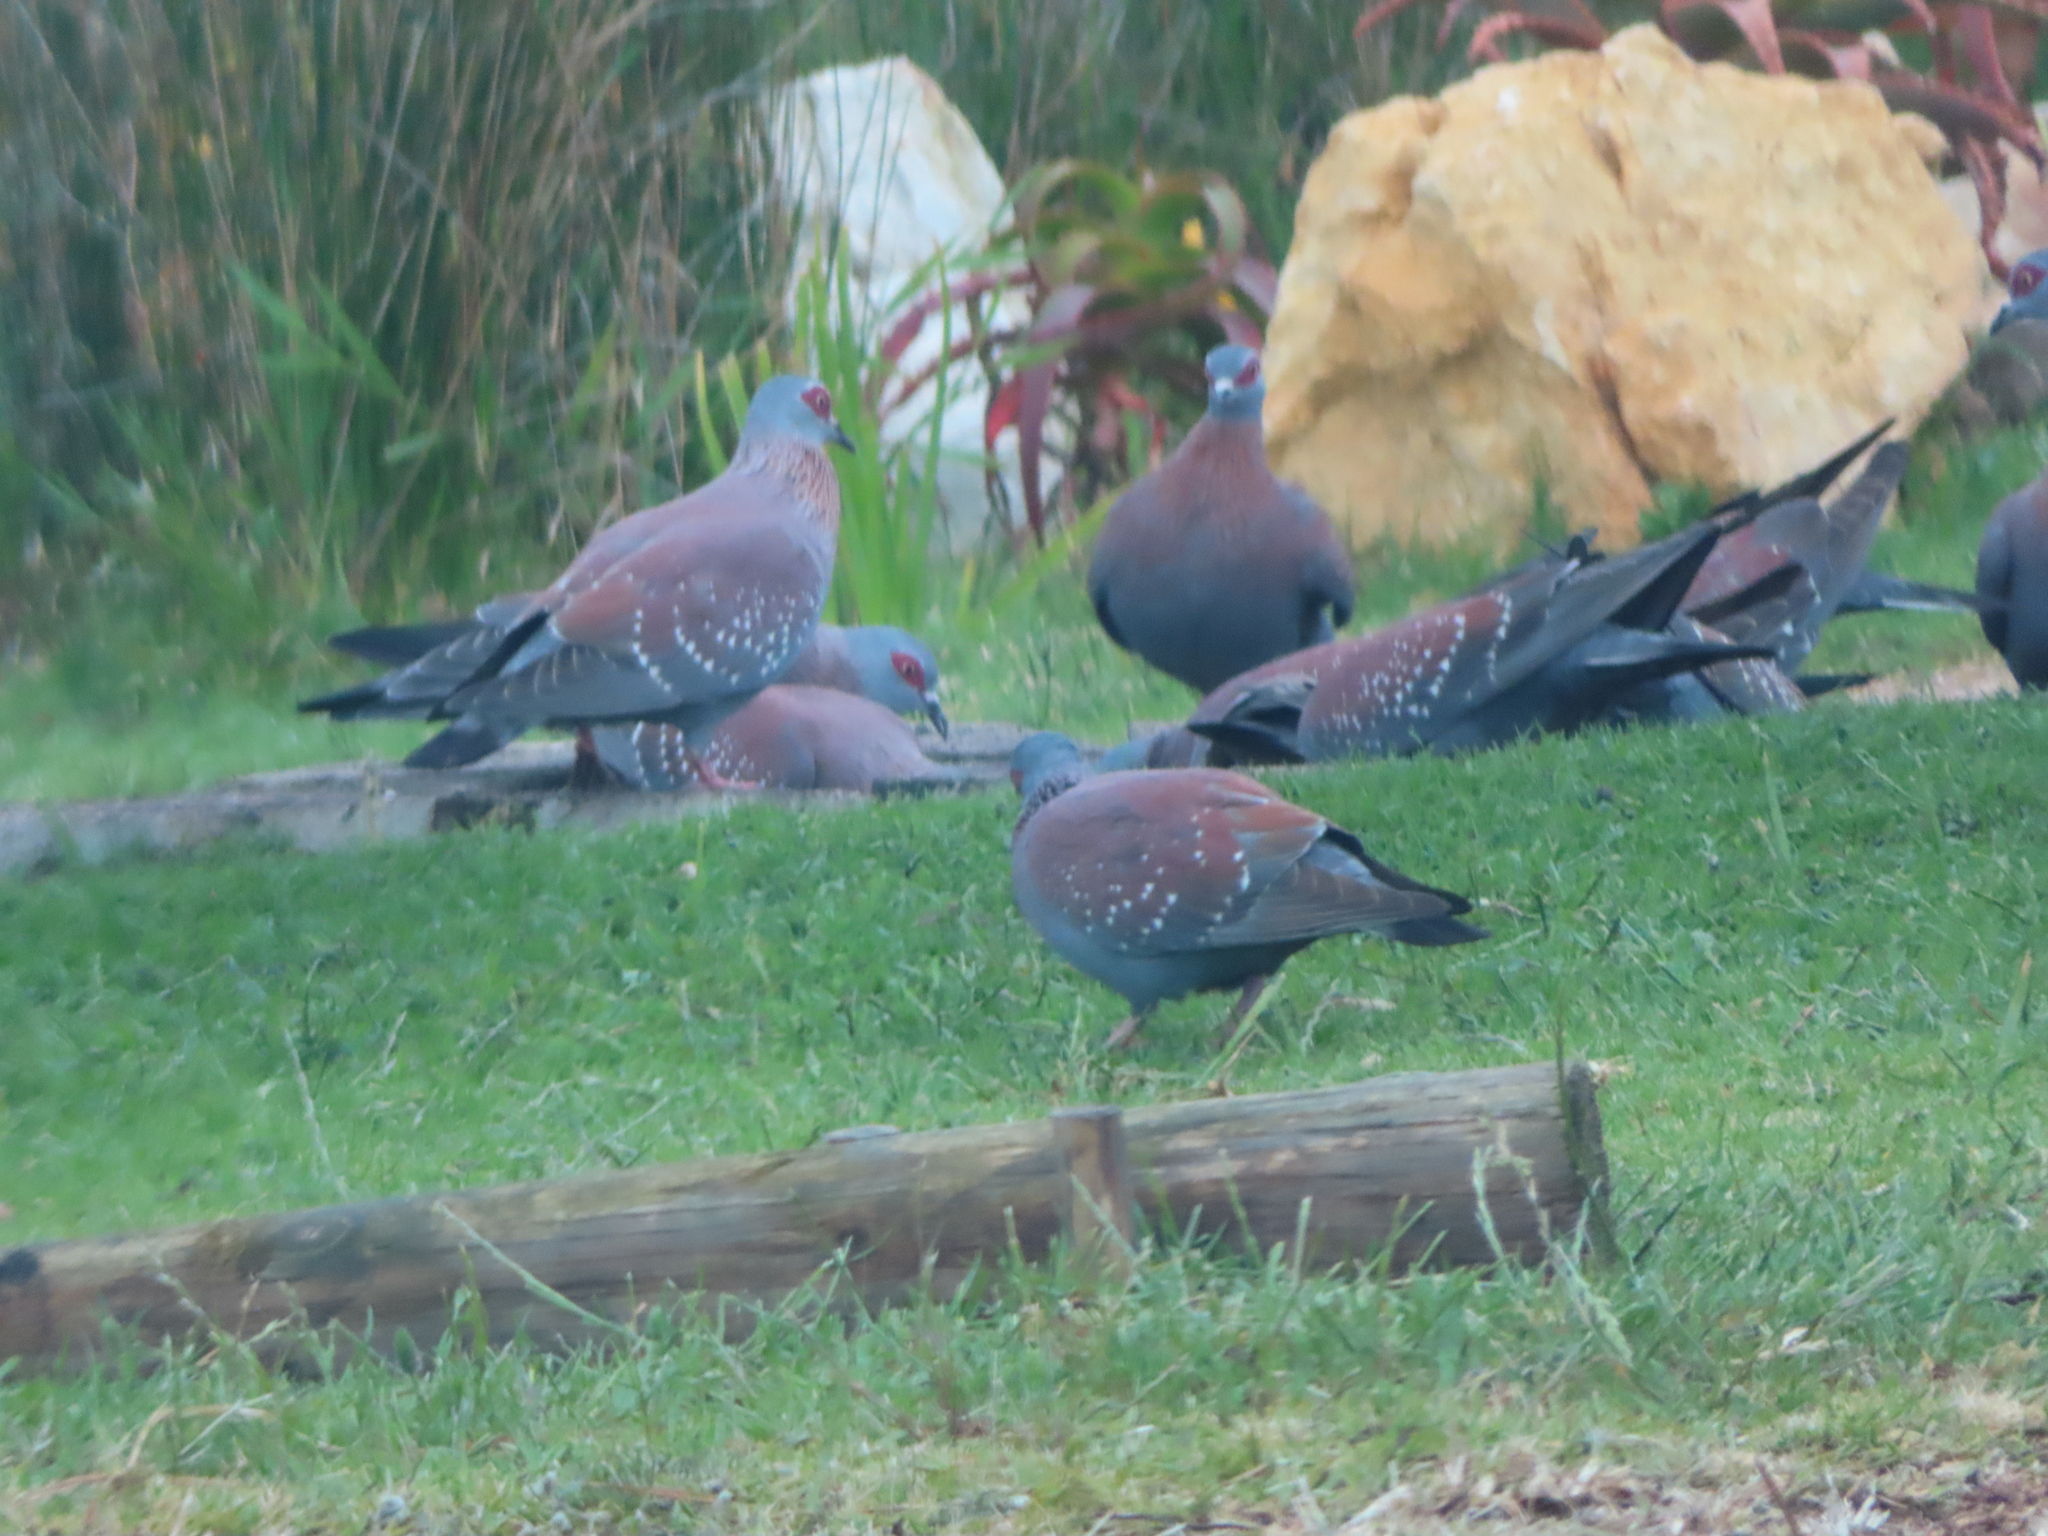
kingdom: Animalia
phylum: Chordata
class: Aves
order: Columbiformes
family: Columbidae
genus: Columba
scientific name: Columba guinea
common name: Speckled pigeon
